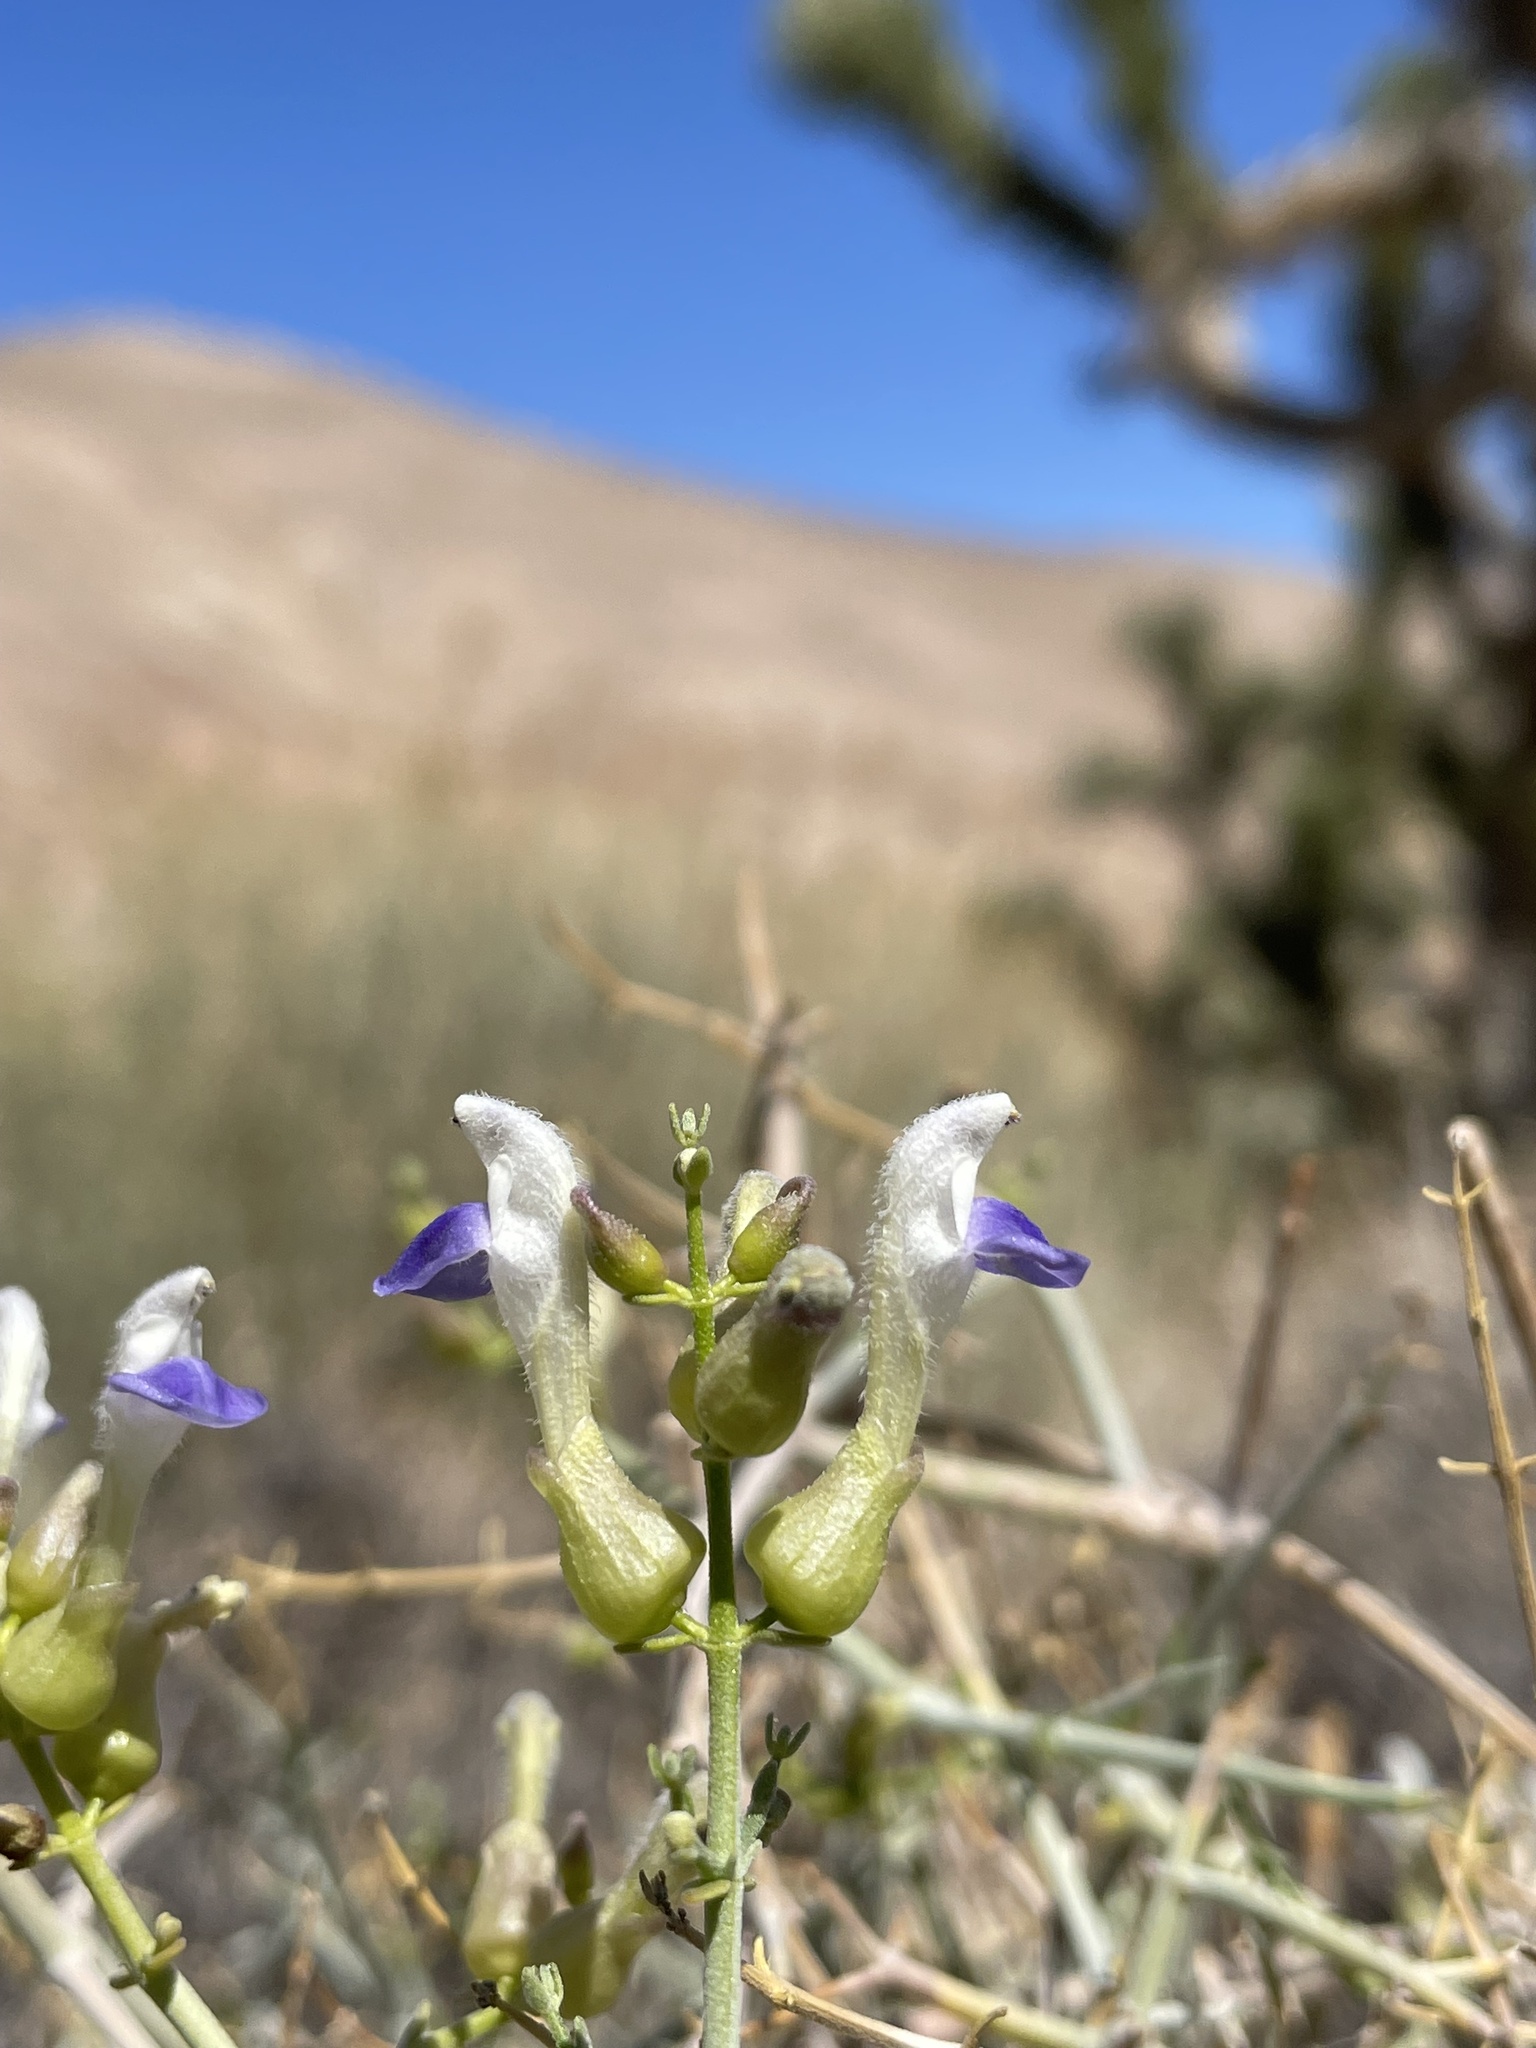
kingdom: Plantae
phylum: Tracheophyta
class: Magnoliopsida
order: Lamiales
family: Lamiaceae
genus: Scutellaria
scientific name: Scutellaria mexicana
